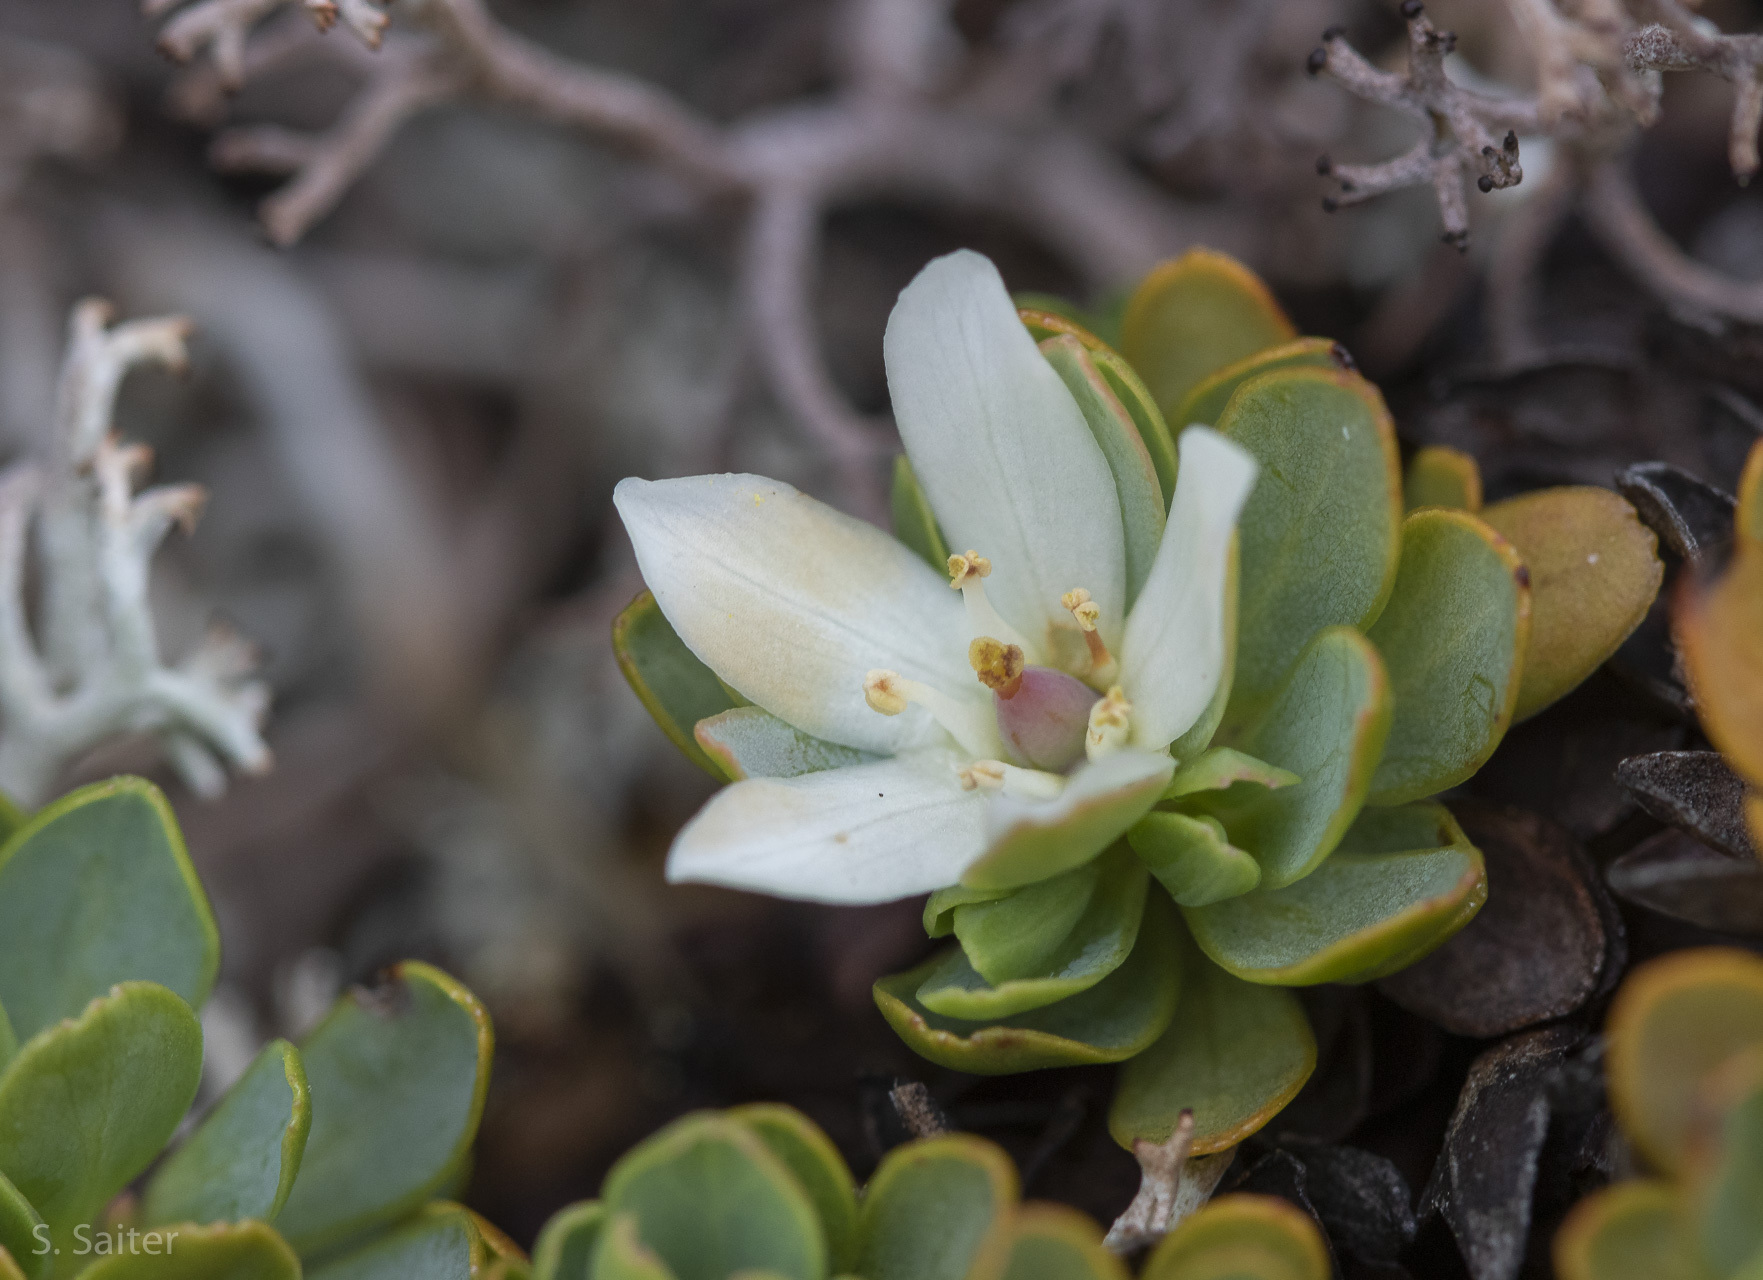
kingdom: Plantae
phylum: Tracheophyta
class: Magnoliopsida
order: Escalloniales
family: Escalloniaceae
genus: Tribeles
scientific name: Tribeles australis
